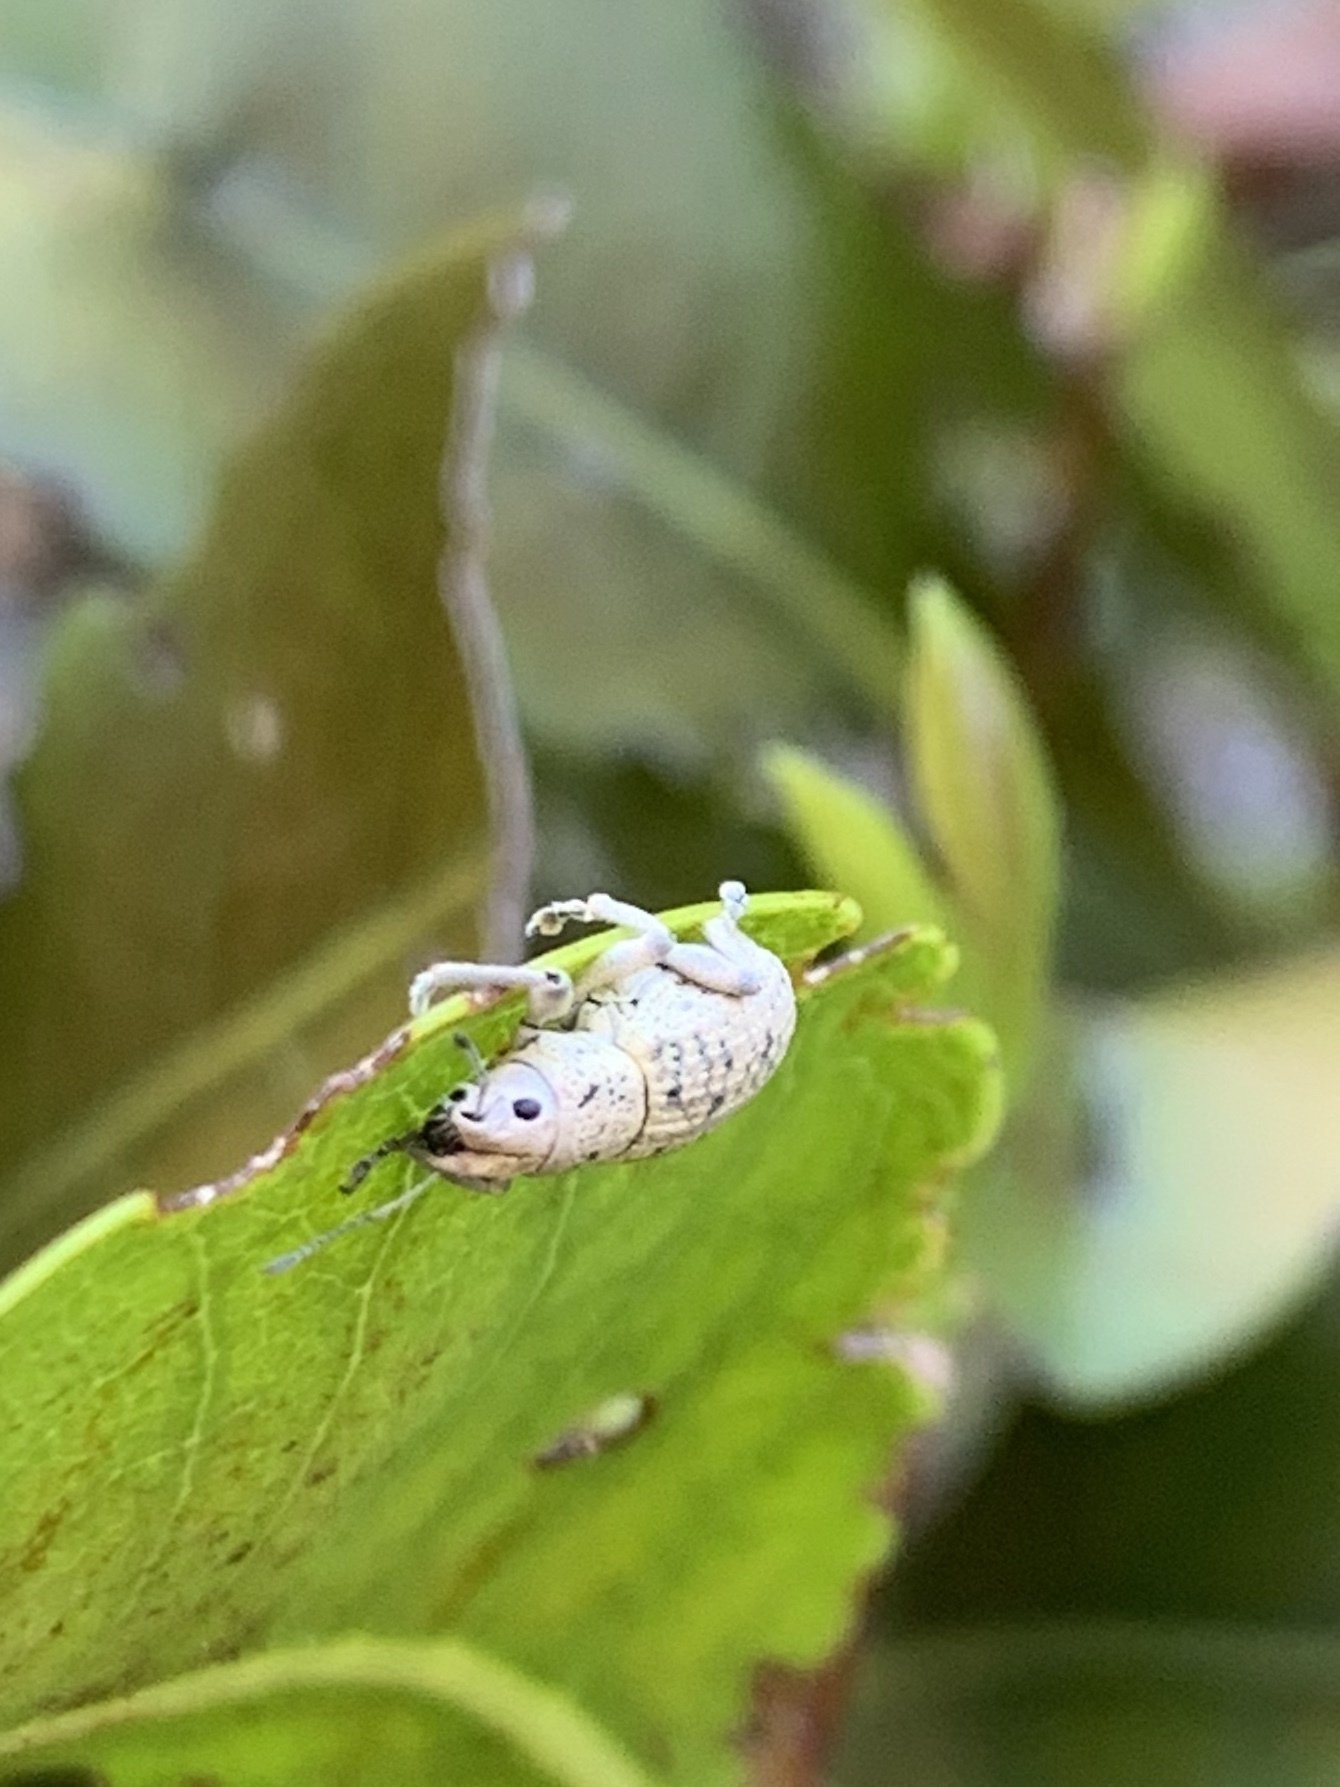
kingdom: Animalia
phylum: Arthropoda
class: Insecta
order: Coleoptera
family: Curculionidae
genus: Artipus
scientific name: Artipus floridanus
